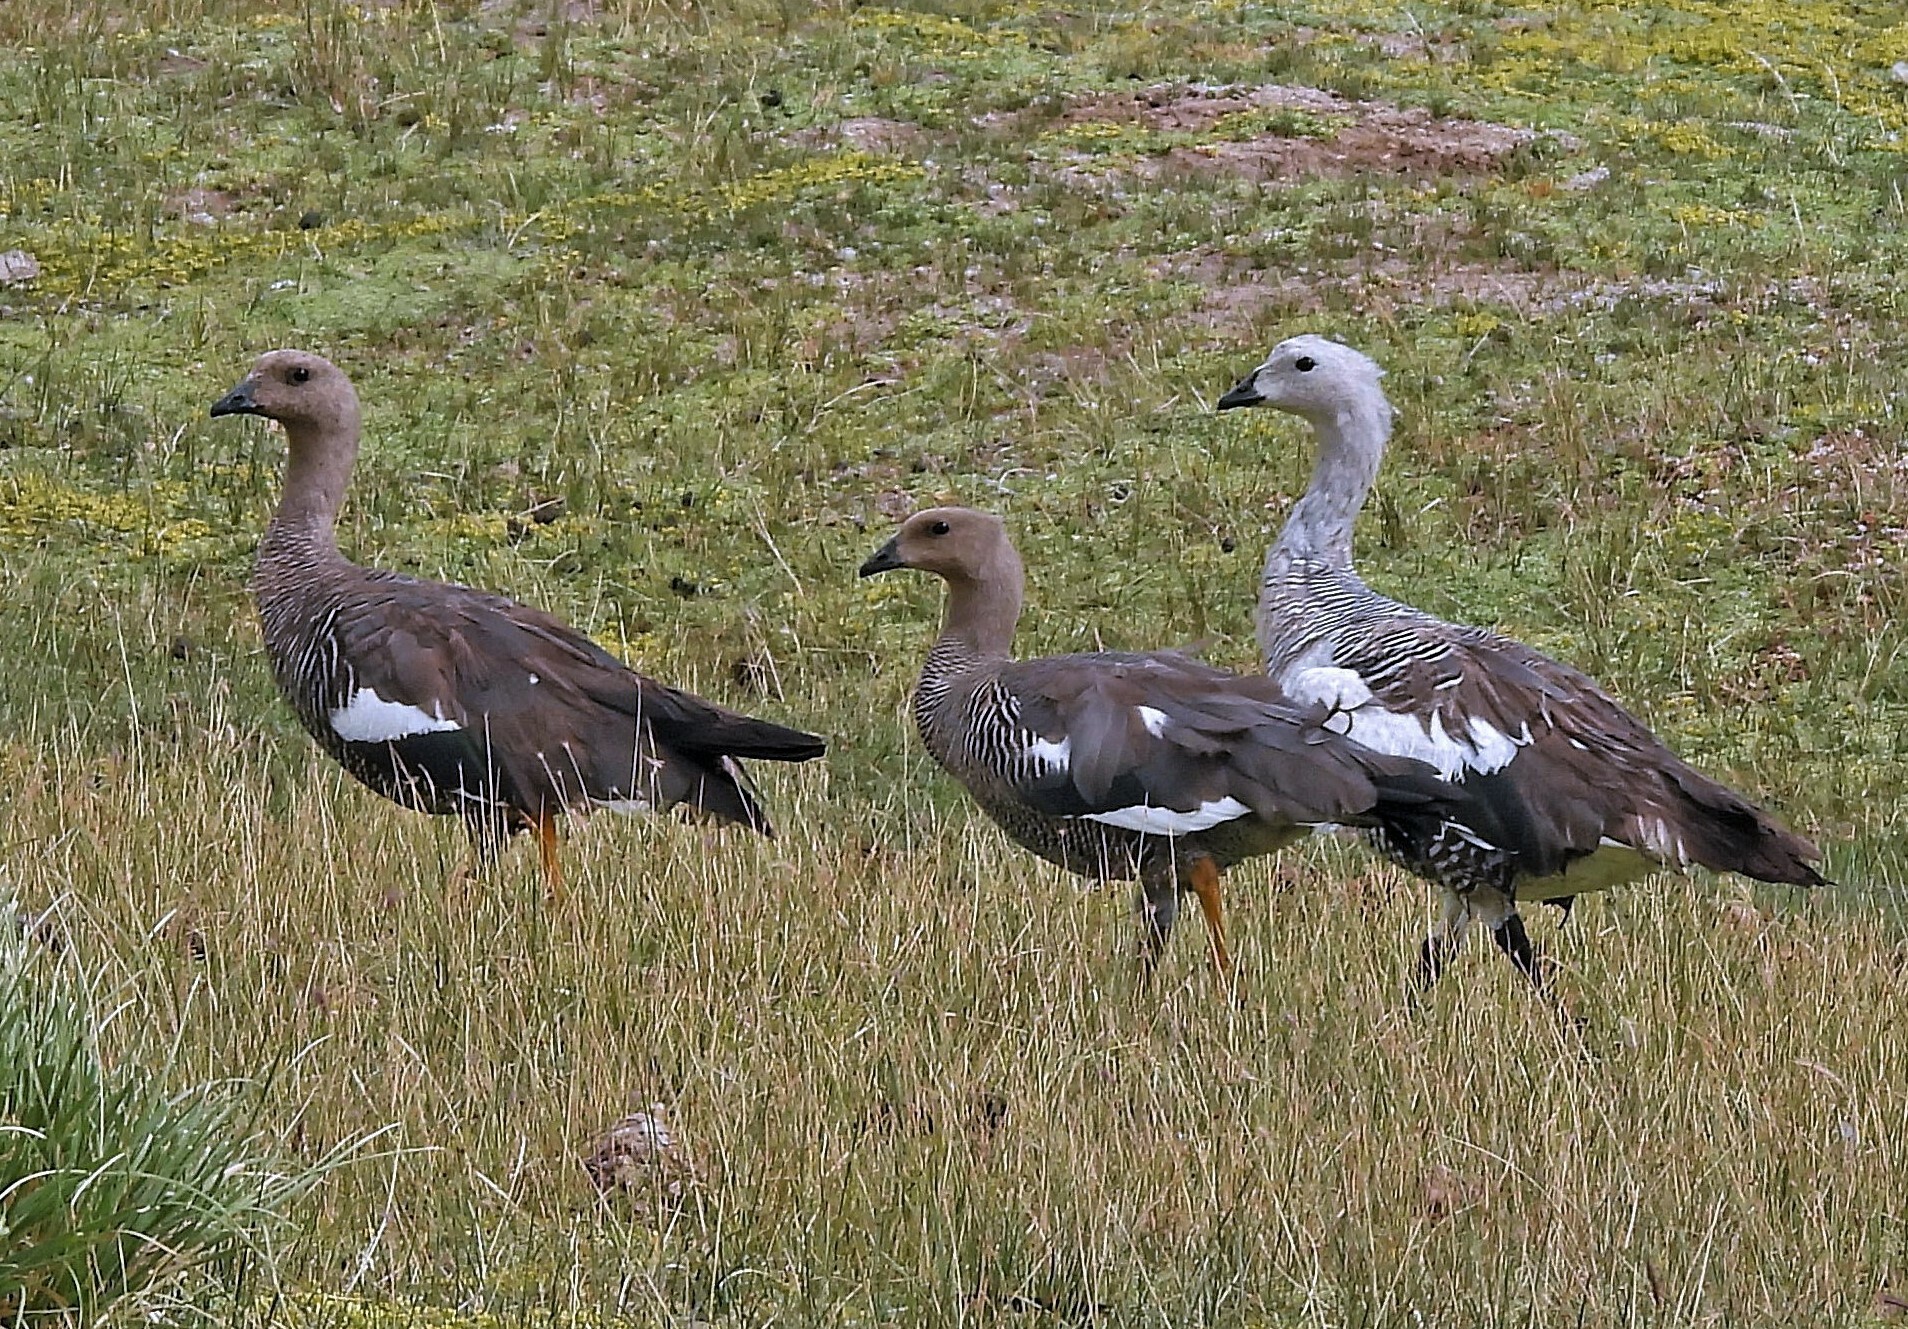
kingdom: Animalia
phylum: Chordata
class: Aves
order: Anseriformes
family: Anatidae
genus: Chloephaga
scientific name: Chloephaga picta
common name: Upland goose
